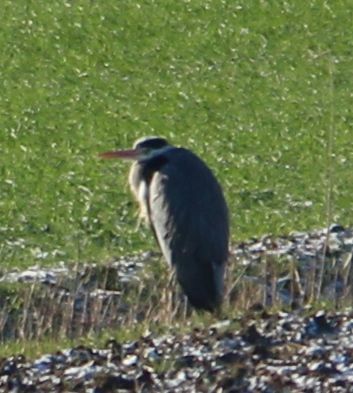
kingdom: Animalia
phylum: Chordata
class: Aves
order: Pelecaniformes
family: Ardeidae
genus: Ardea
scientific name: Ardea cinerea
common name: Grey heron
